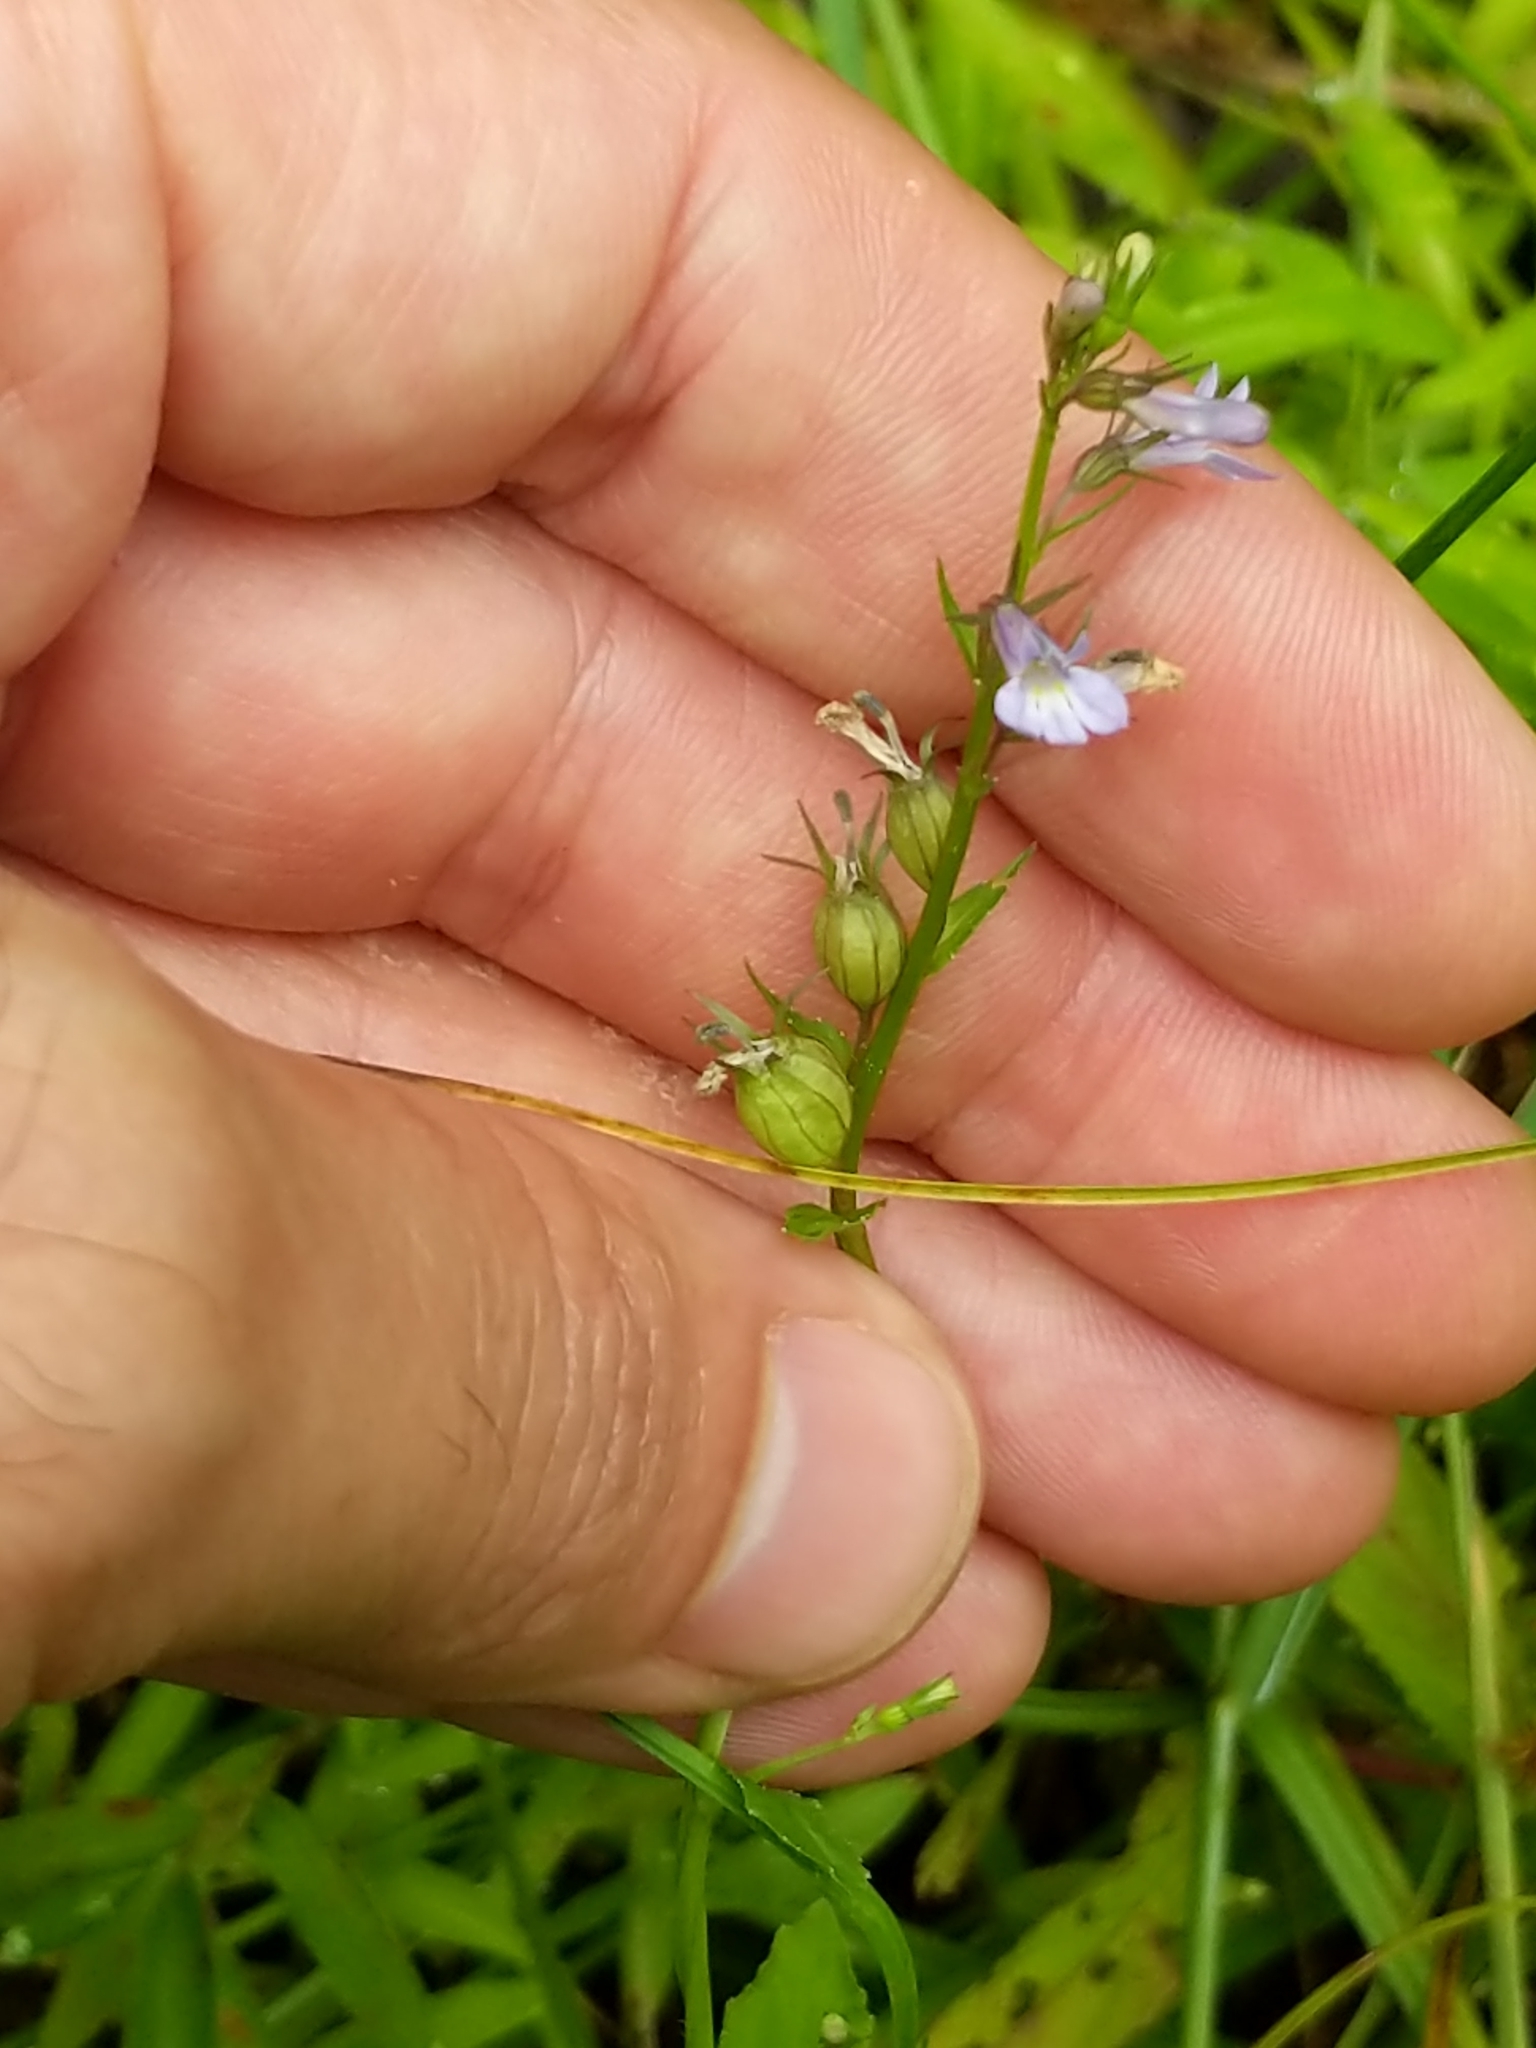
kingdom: Plantae
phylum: Tracheophyta
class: Magnoliopsida
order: Asterales
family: Campanulaceae
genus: Lobelia
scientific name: Lobelia inflata
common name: Indian tobacco
